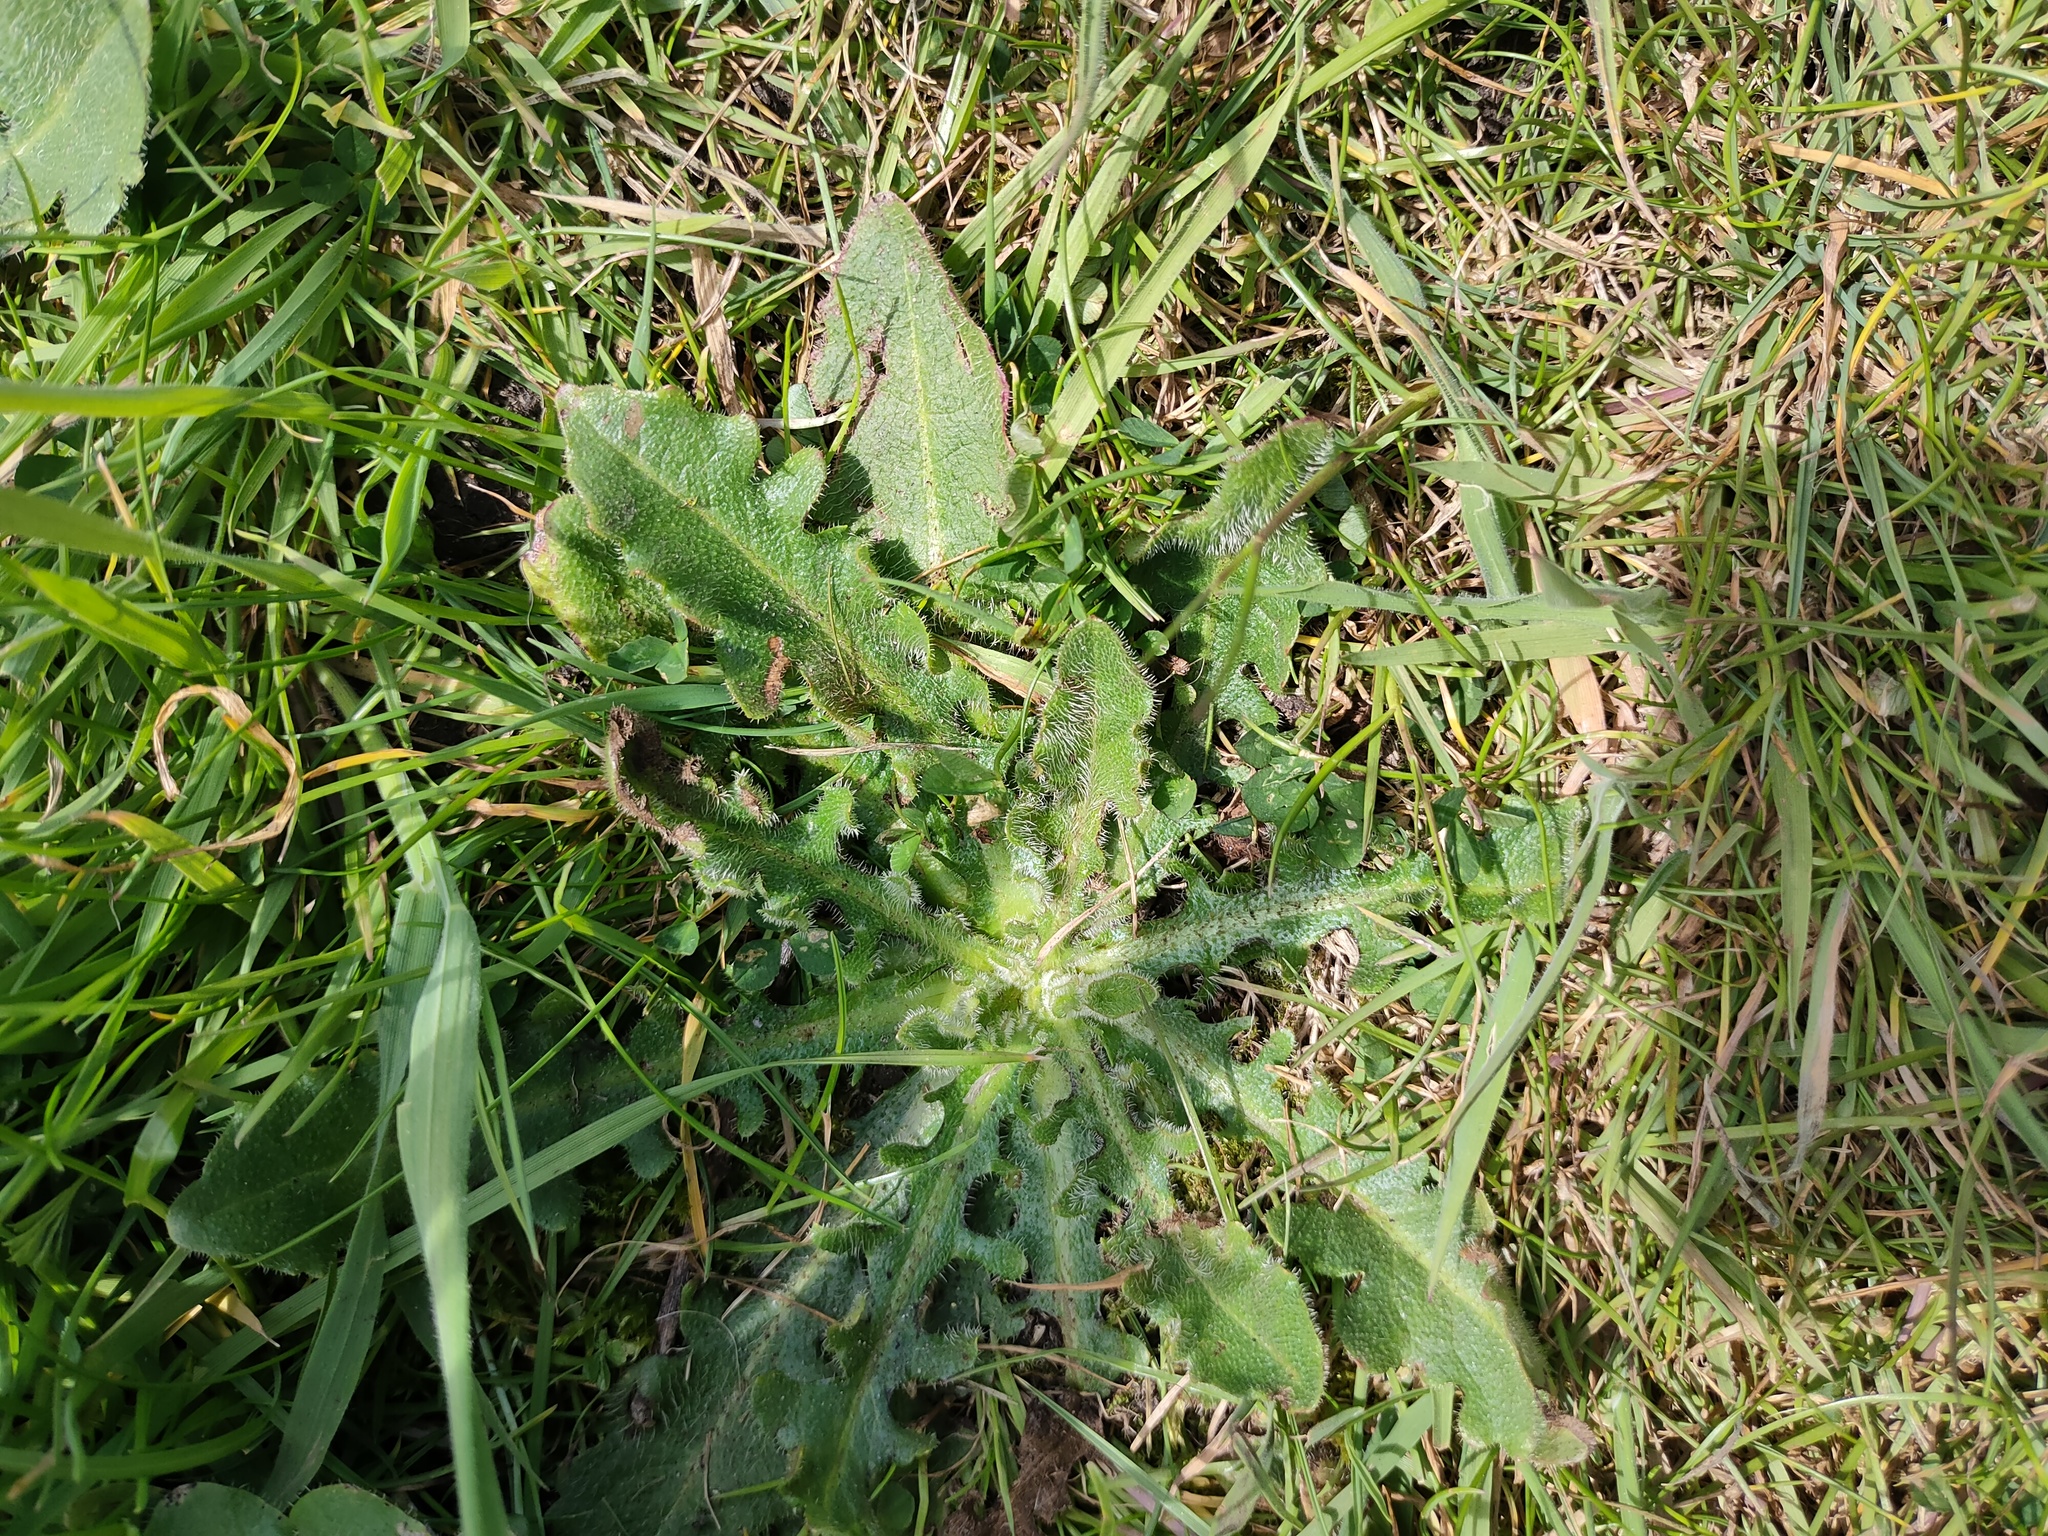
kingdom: Plantae
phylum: Tracheophyta
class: Magnoliopsida
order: Asterales
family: Asteraceae
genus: Hypochaeris
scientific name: Hypochaeris radicata
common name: Flatweed
